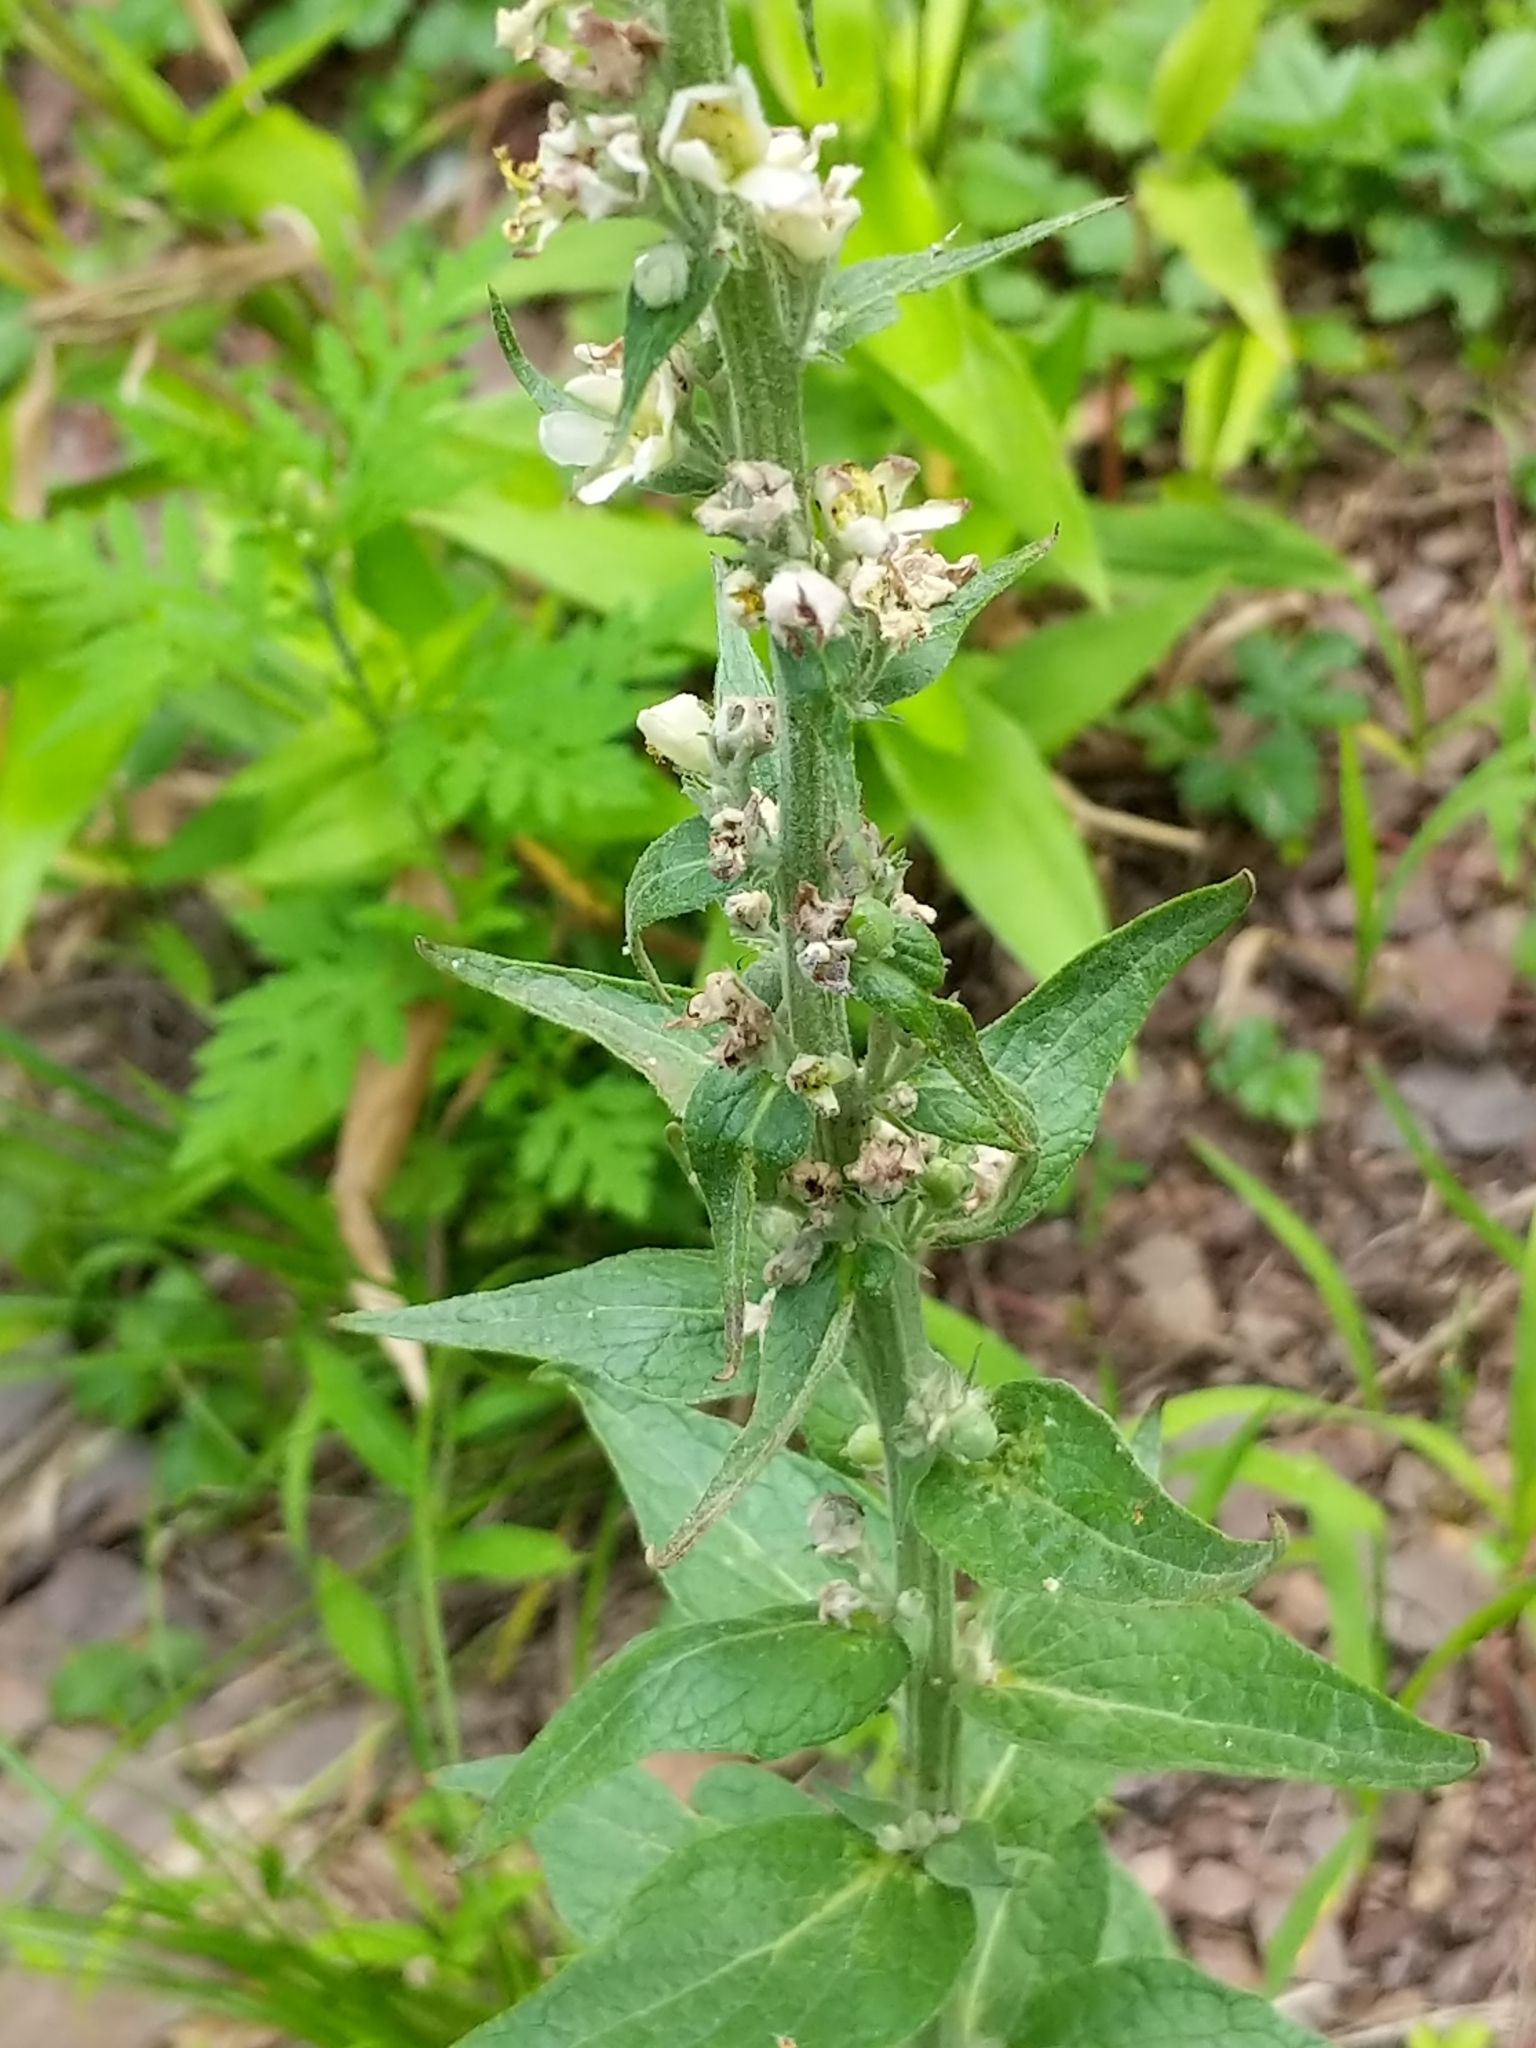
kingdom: Plantae
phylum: Tracheophyta
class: Magnoliopsida
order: Lamiales
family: Scrophulariaceae
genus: Verbascum
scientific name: Verbascum lychnitis
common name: White mullein
